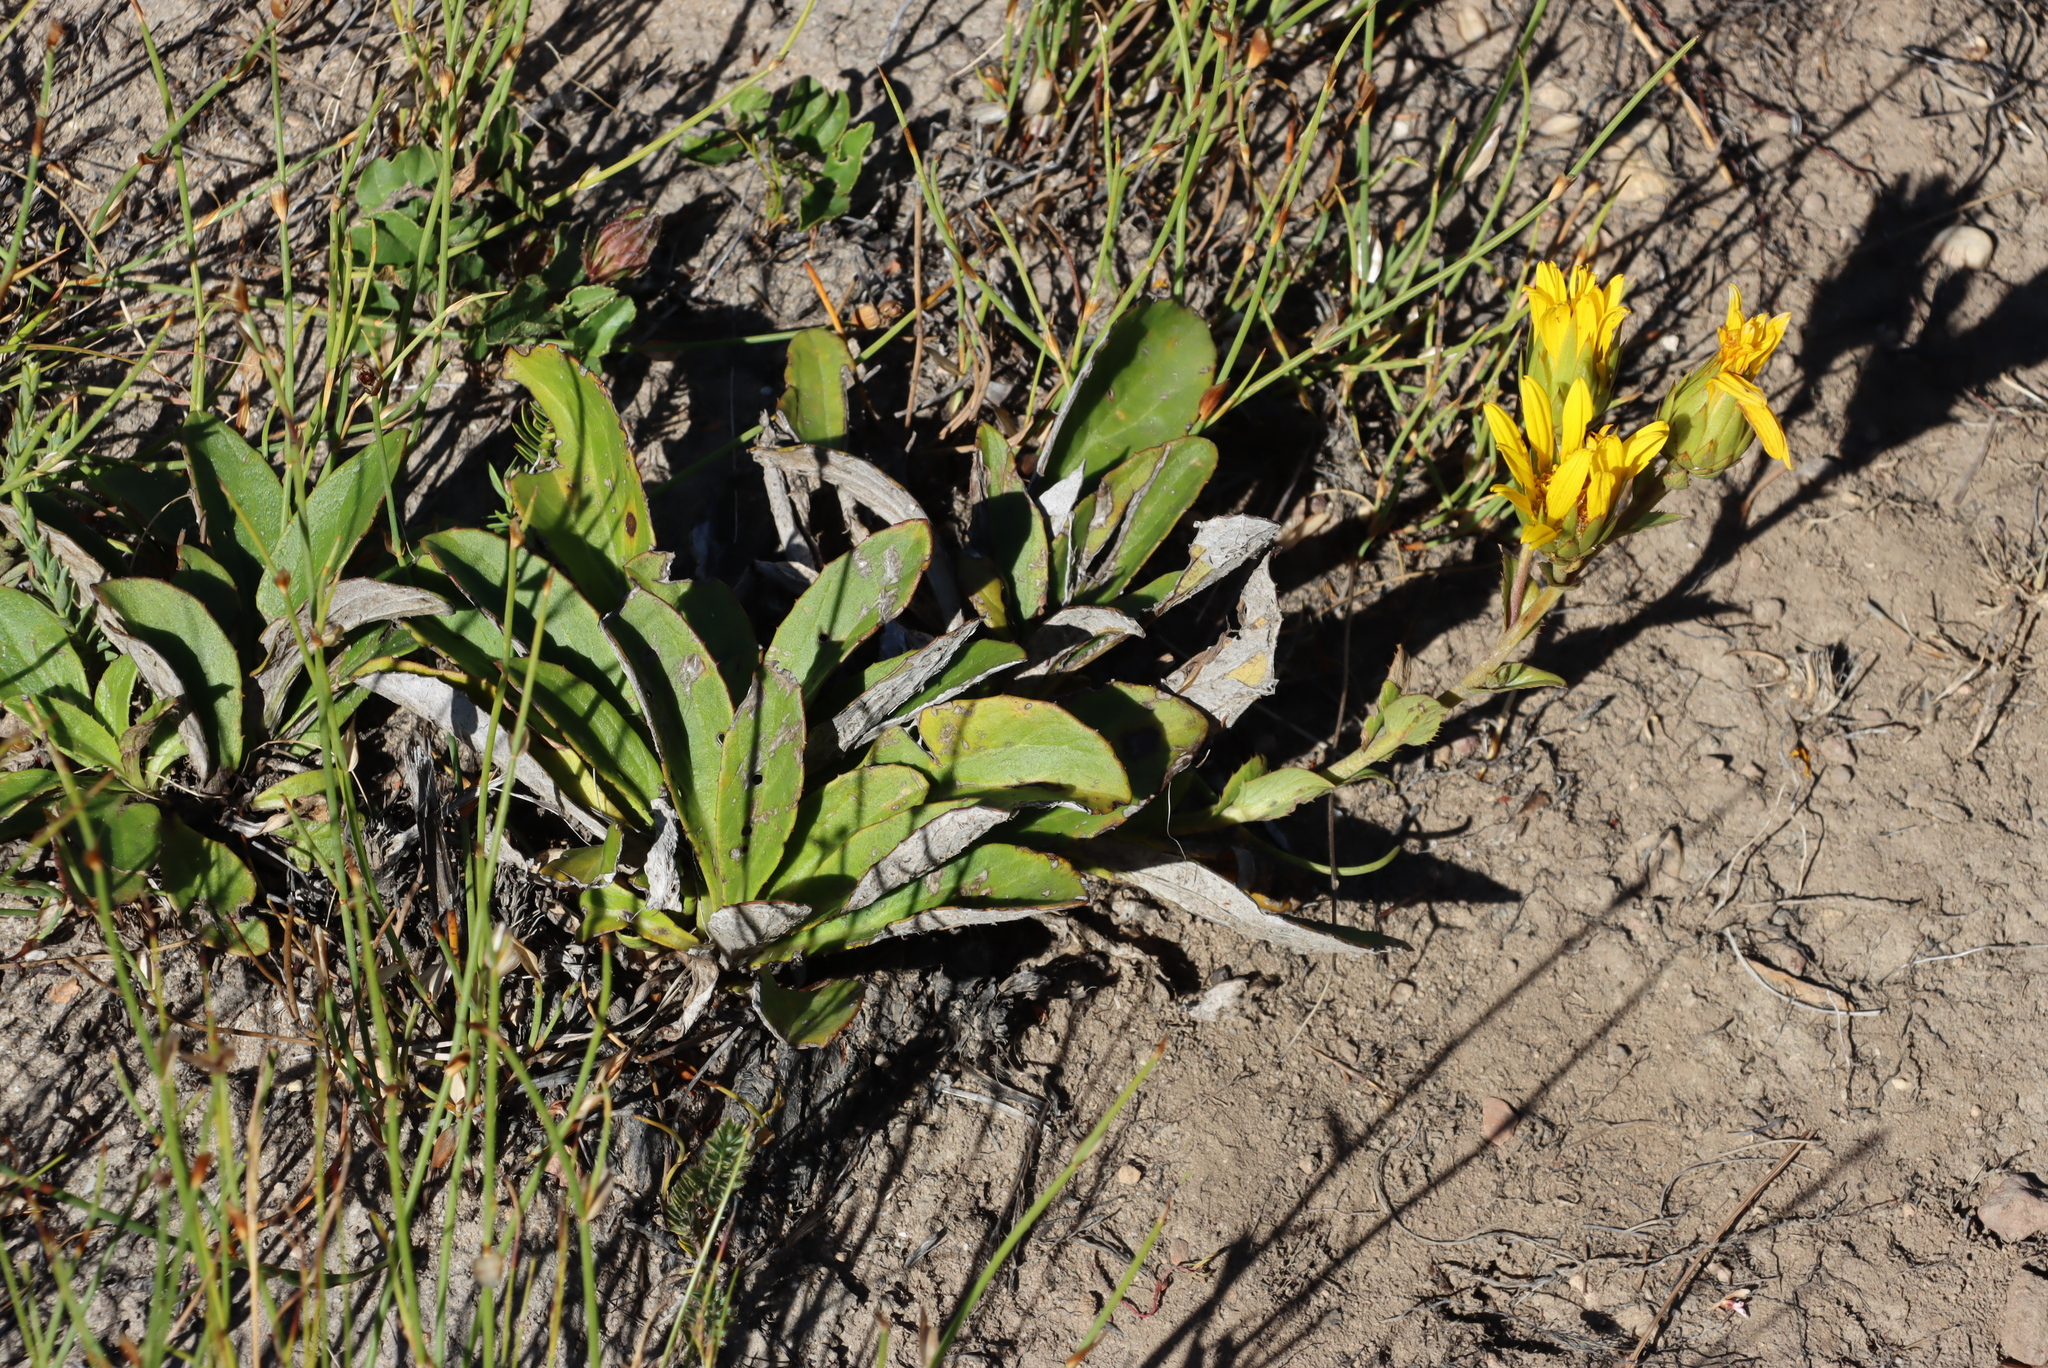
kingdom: Plantae
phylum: Tracheophyta
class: Magnoliopsida
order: Asterales
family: Asteraceae
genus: Berkheya
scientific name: Berkheya herbacea
